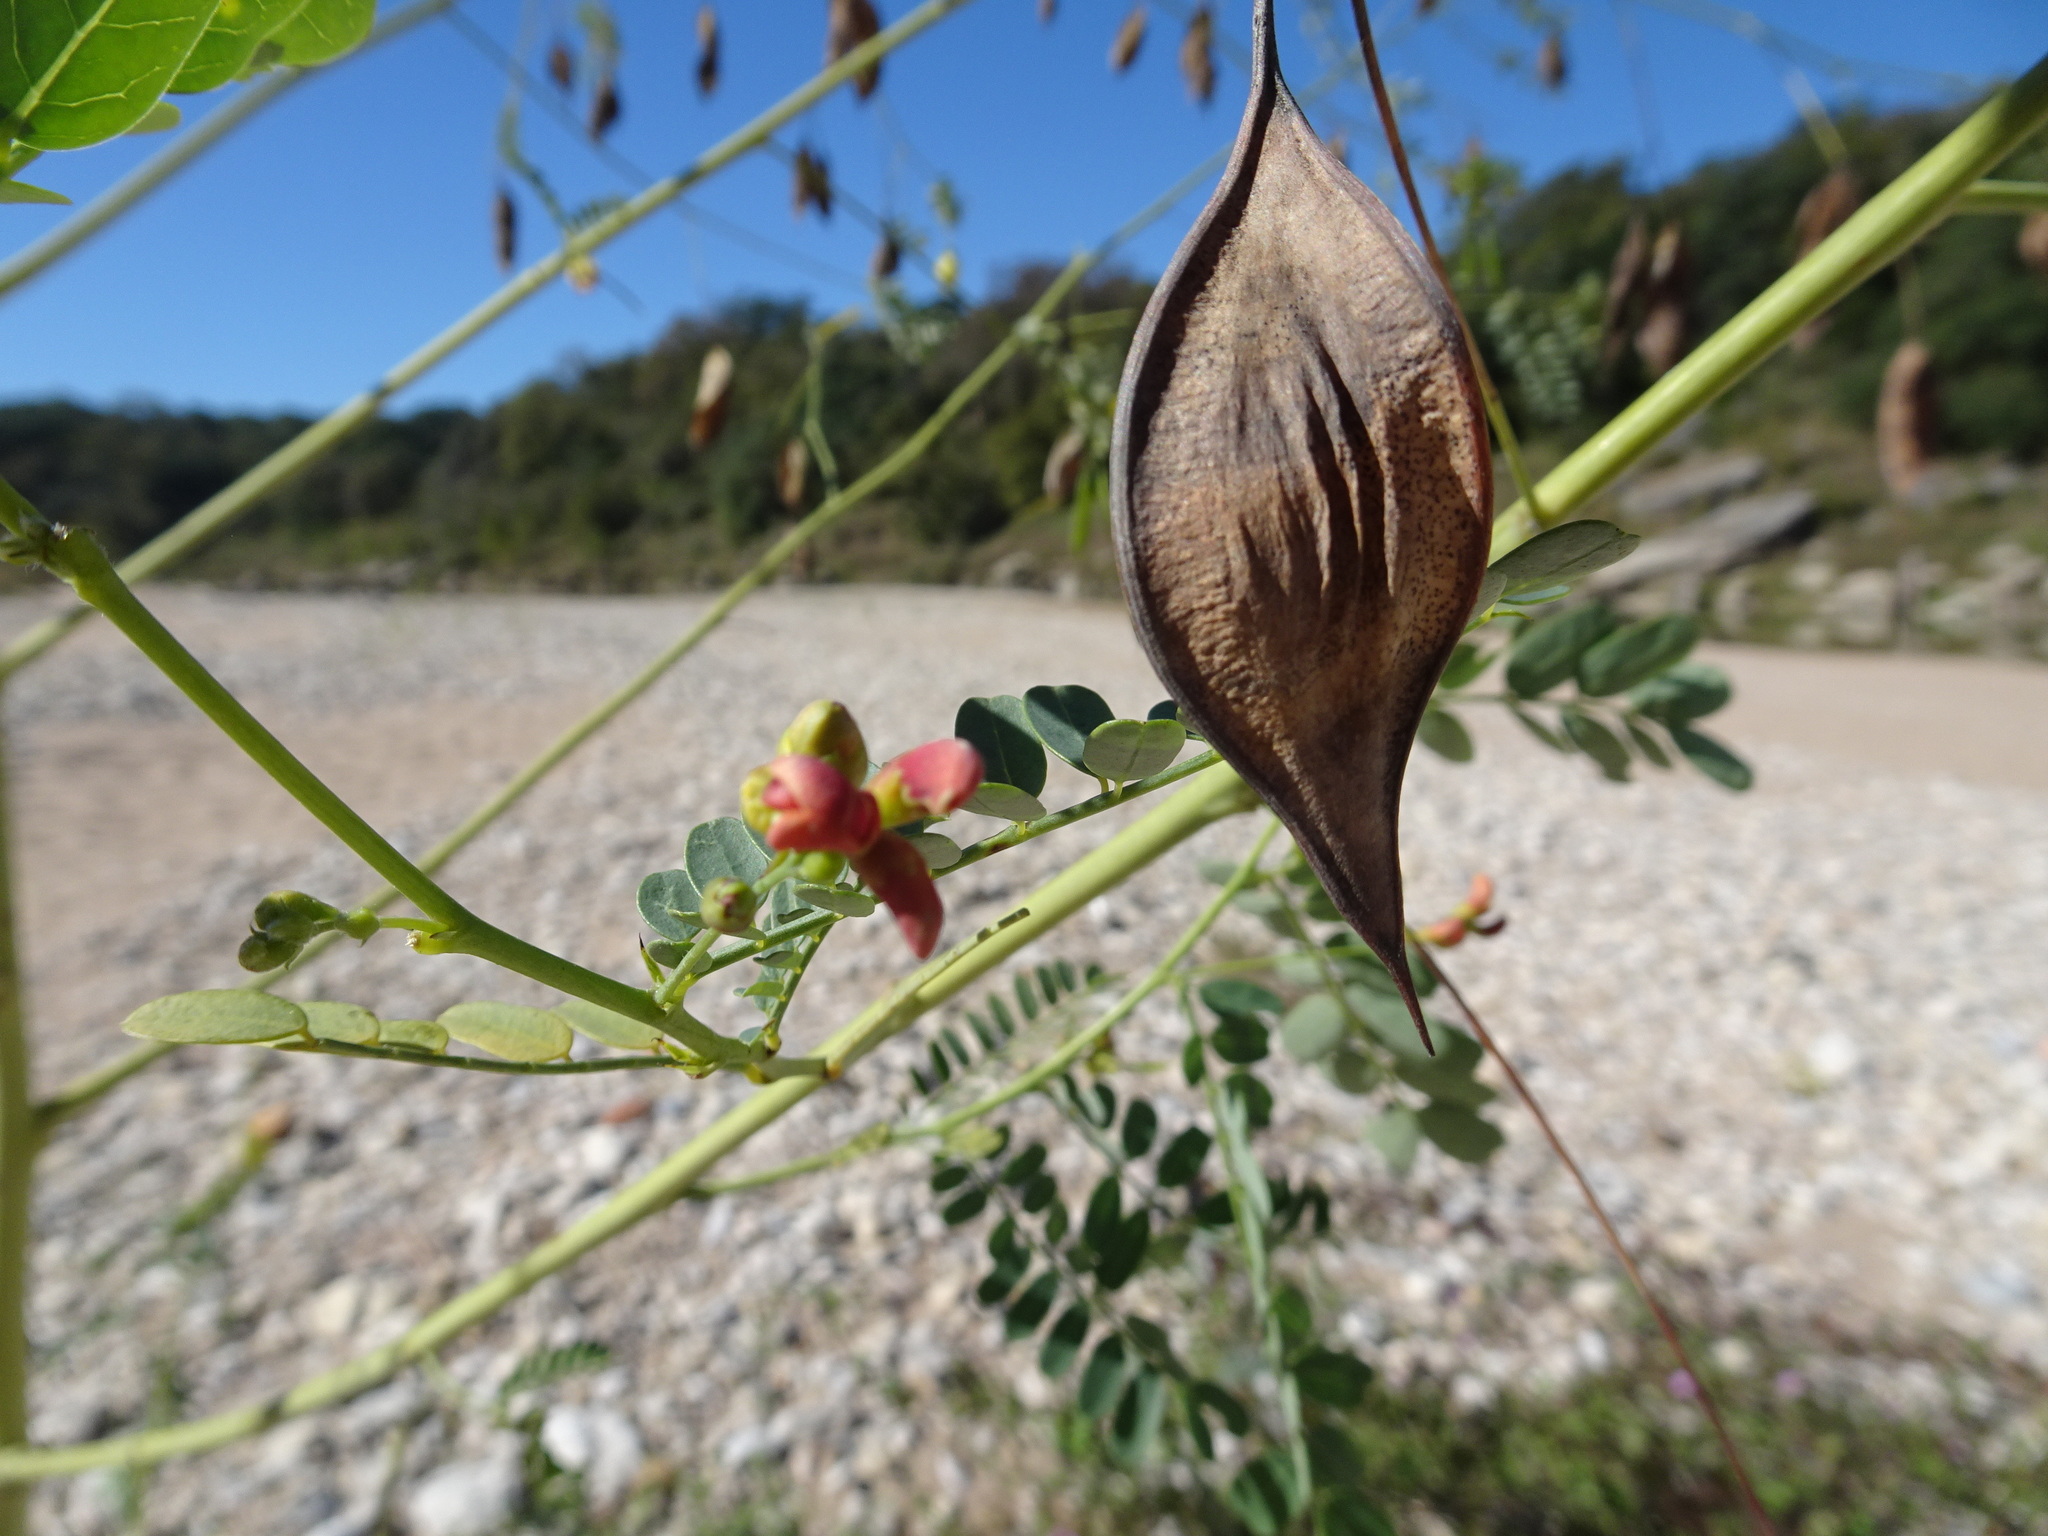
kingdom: Plantae
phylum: Tracheophyta
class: Magnoliopsida
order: Fabales
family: Fabaceae
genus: Sesbania
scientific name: Sesbania vesicaria
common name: Bagpod
